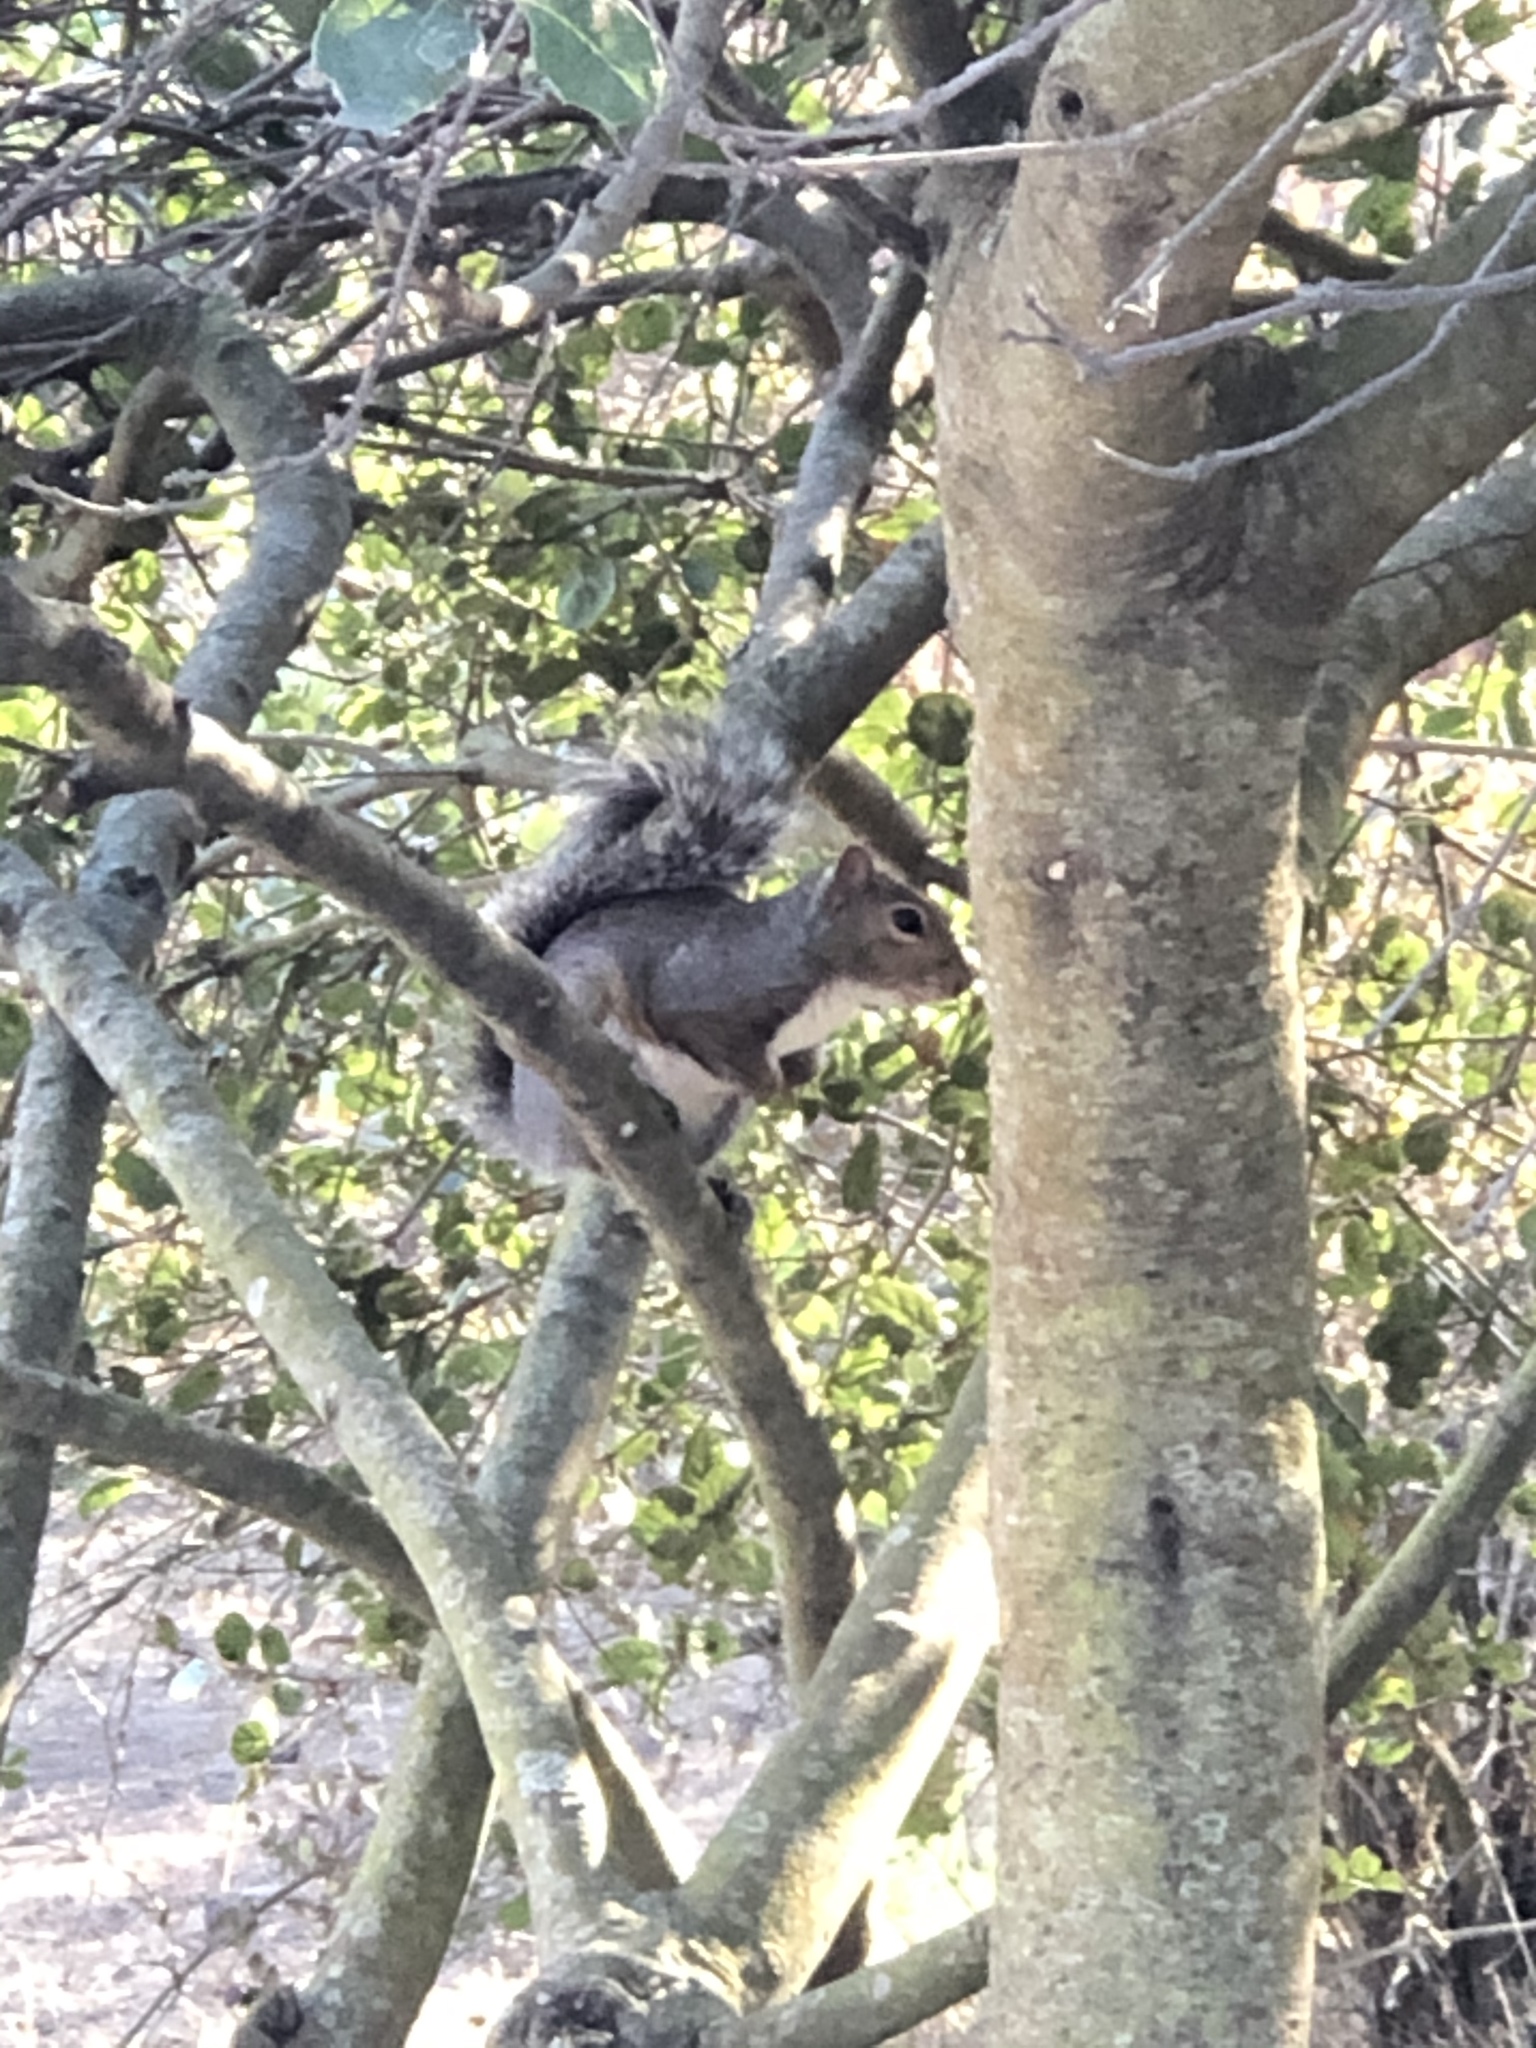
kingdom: Animalia
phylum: Chordata
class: Mammalia
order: Rodentia
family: Sciuridae
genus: Sciurus
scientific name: Sciurus carolinensis
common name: Eastern gray squirrel
